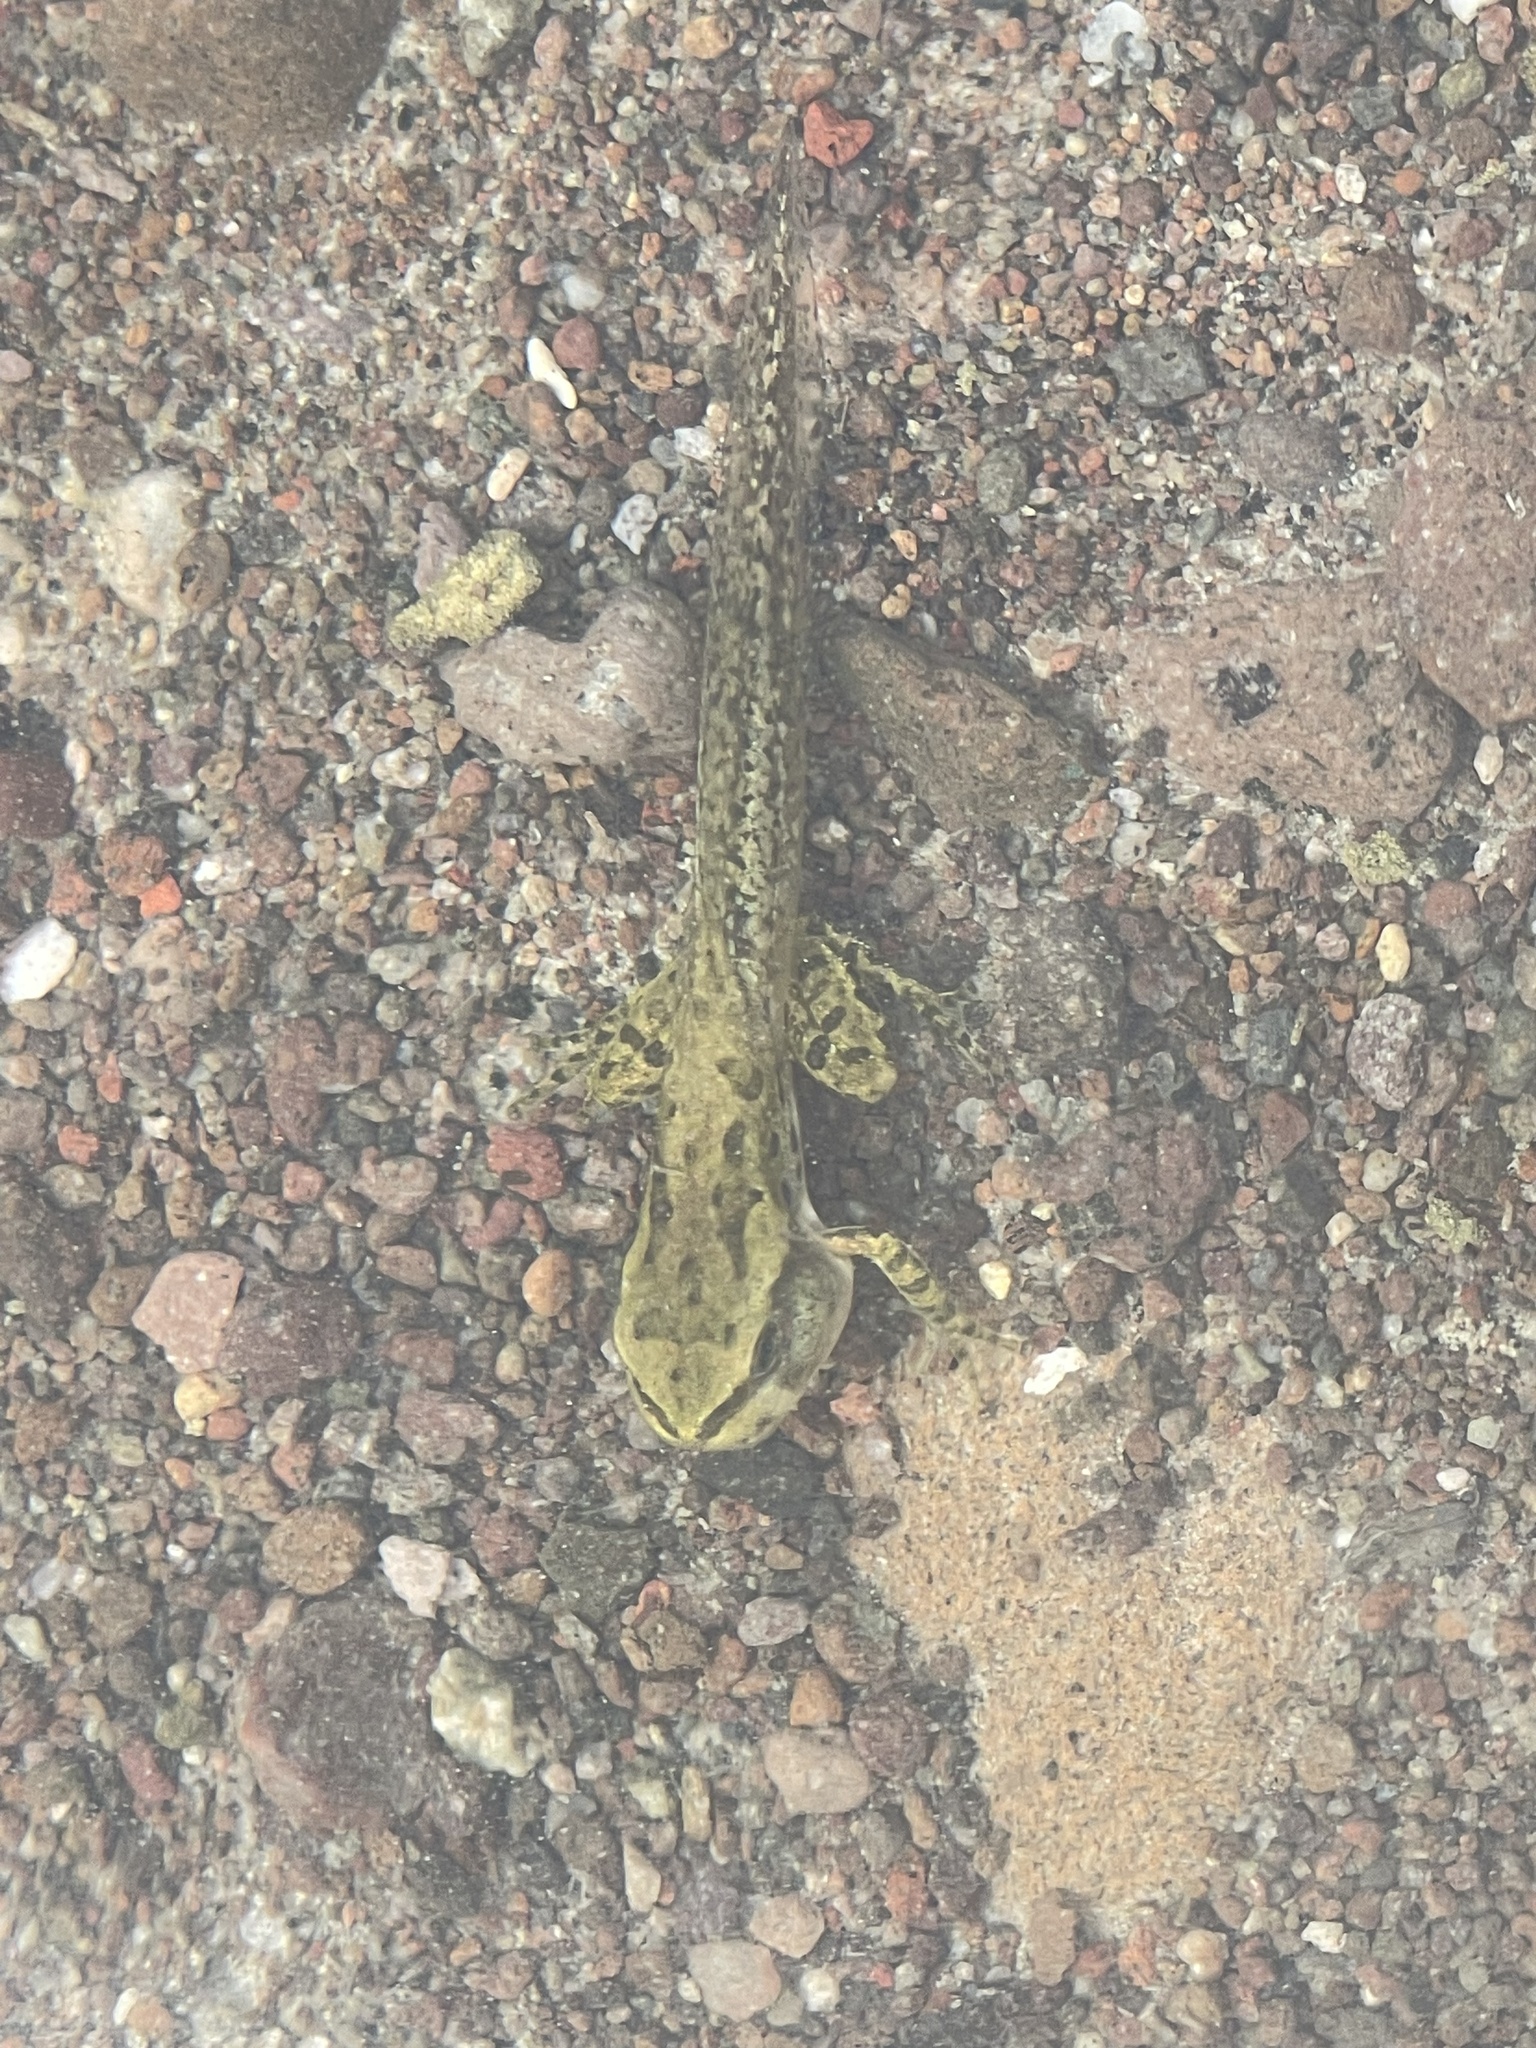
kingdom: Animalia
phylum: Chordata
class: Amphibia
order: Anura
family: Hylidae
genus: Pseudacris
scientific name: Pseudacris regilla
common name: Pacific chorus frog
